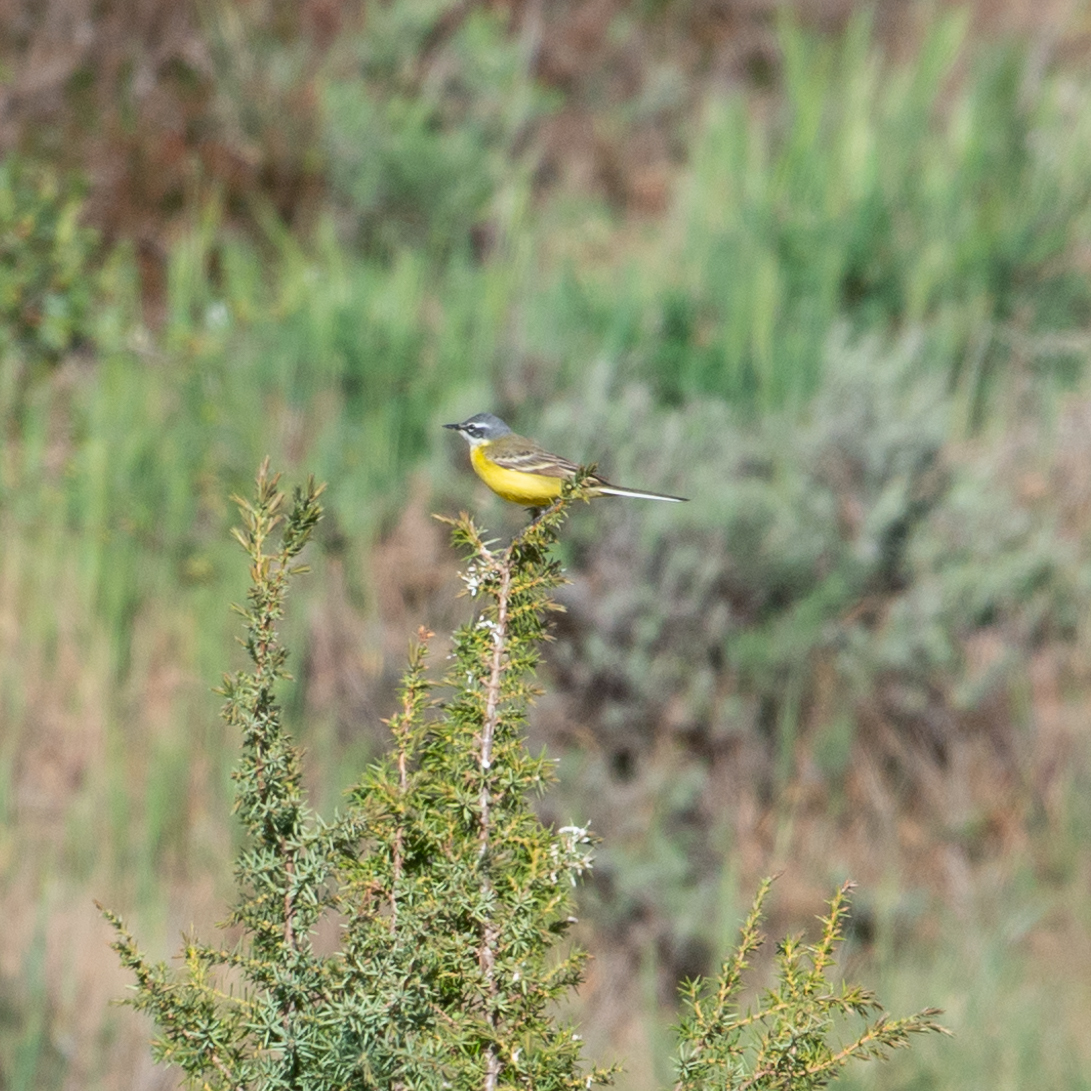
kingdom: Animalia
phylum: Chordata
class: Aves
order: Passeriformes
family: Motacillidae
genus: Motacilla
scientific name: Motacilla flava
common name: Western yellow wagtail
